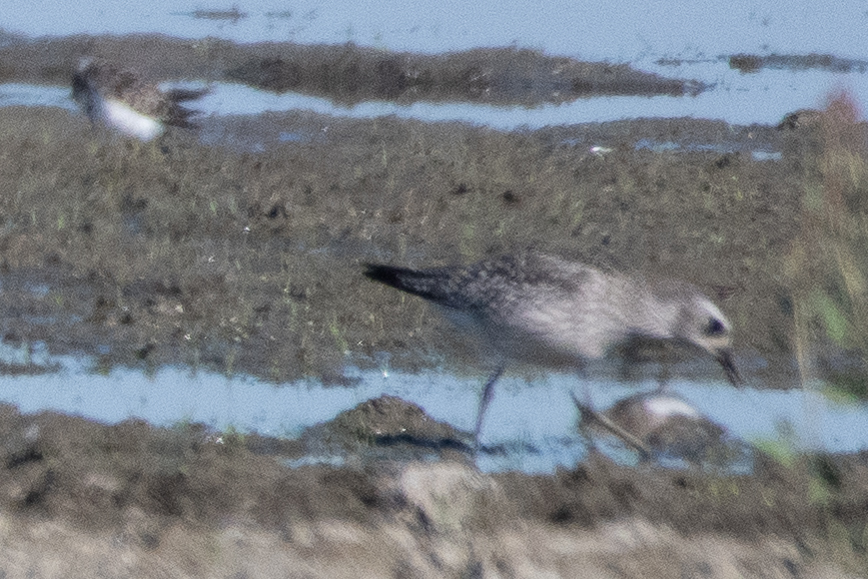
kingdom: Animalia
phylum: Chordata
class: Aves
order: Charadriiformes
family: Charadriidae
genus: Pluvialis
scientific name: Pluvialis squatarola
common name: Grey plover
